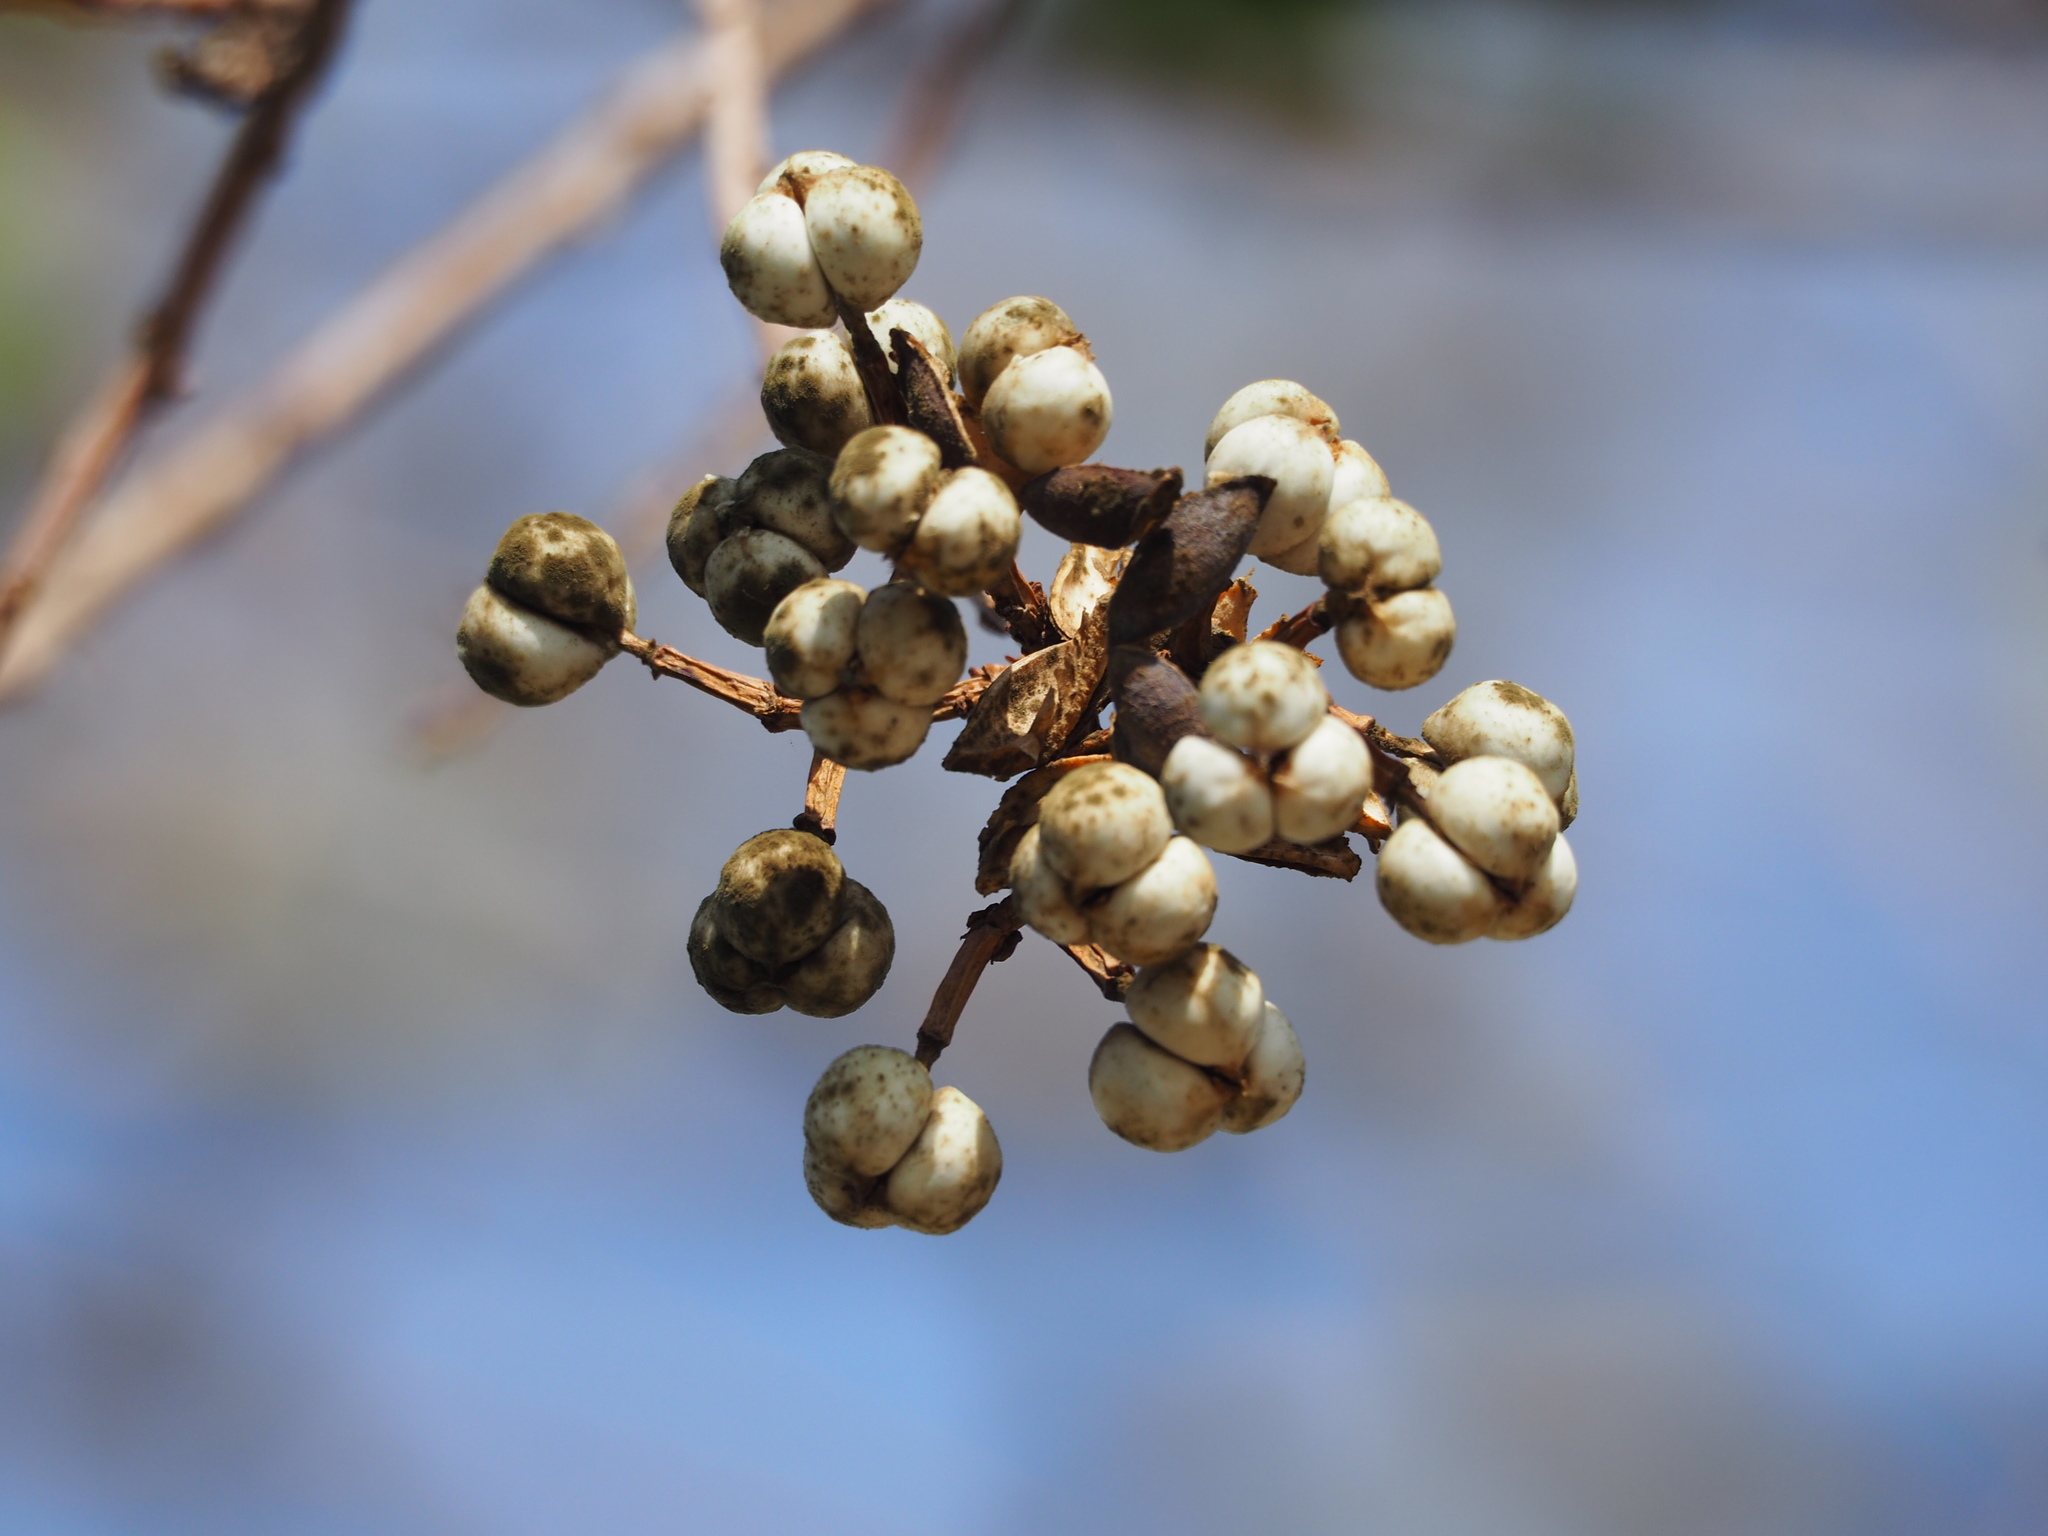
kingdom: Plantae
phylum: Tracheophyta
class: Magnoliopsida
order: Malpighiales
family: Euphorbiaceae
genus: Triadica
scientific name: Triadica sebifera
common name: Chinese tallow
